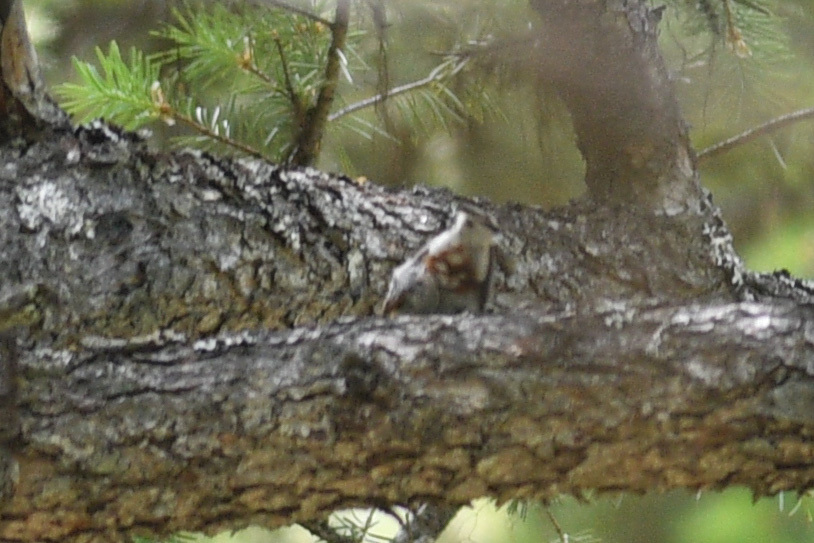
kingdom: Animalia
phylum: Chordata
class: Aves
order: Passeriformes
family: Sittidae
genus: Sitta
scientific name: Sitta carolinensis
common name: White-breasted nuthatch
